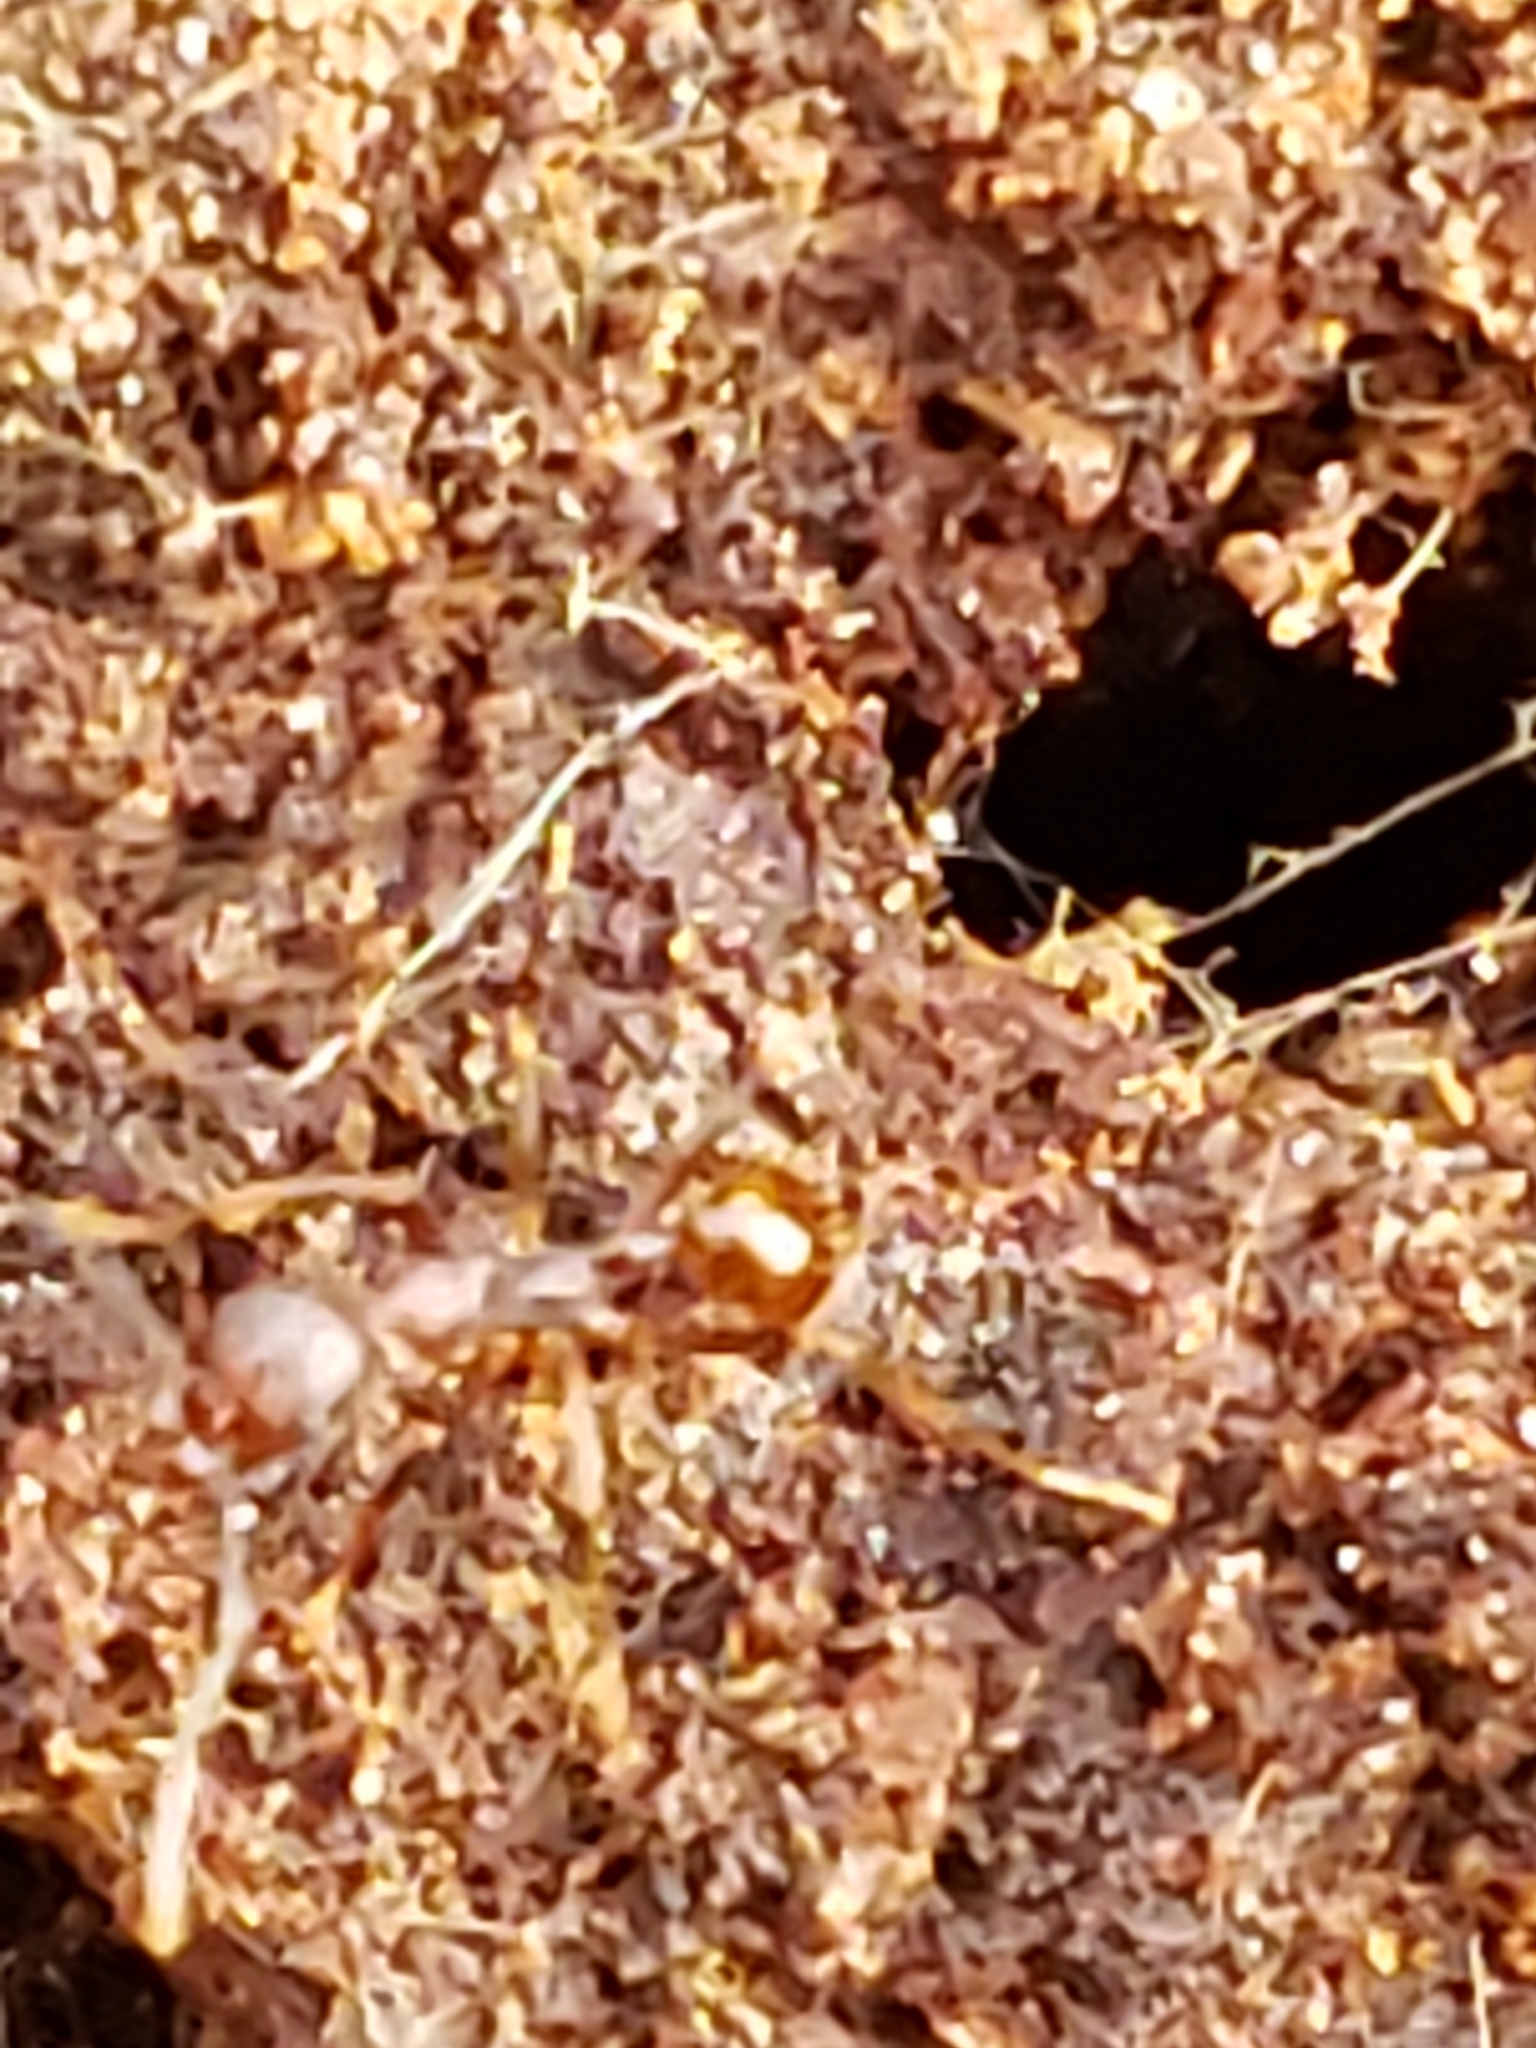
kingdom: Animalia
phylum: Arthropoda
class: Insecta
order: Hymenoptera
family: Formicidae
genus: Aphaenogaster
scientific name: Aphaenogaster fulva
